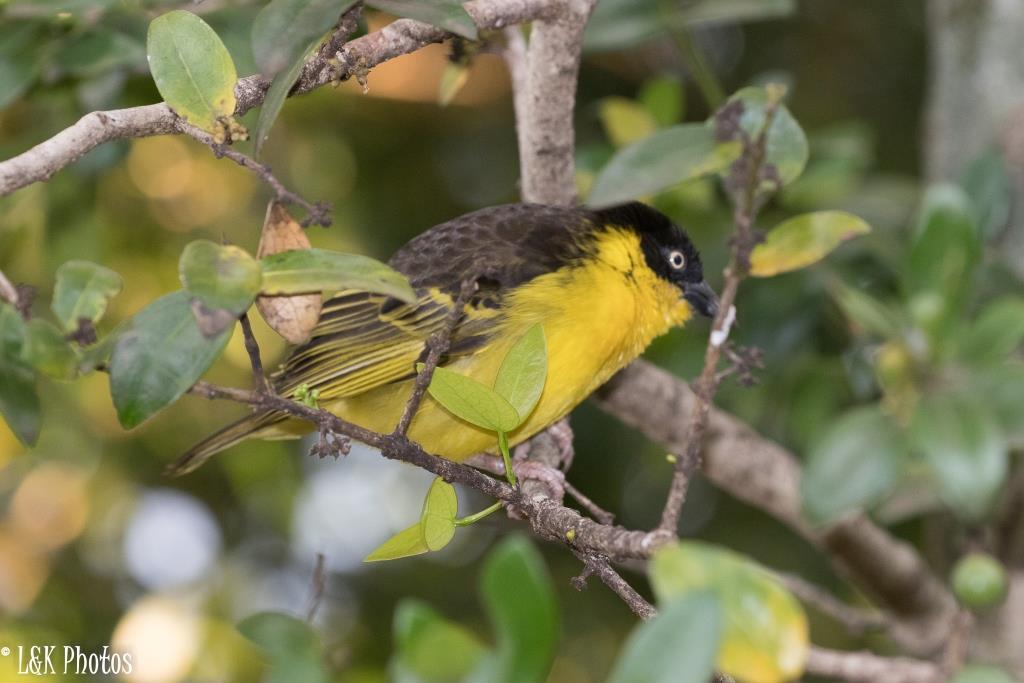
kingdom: Animalia
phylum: Chordata
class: Aves
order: Passeriformes
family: Ploceidae
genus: Ploceus
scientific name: Ploceus baglafecht
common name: Baglafecht weaver
